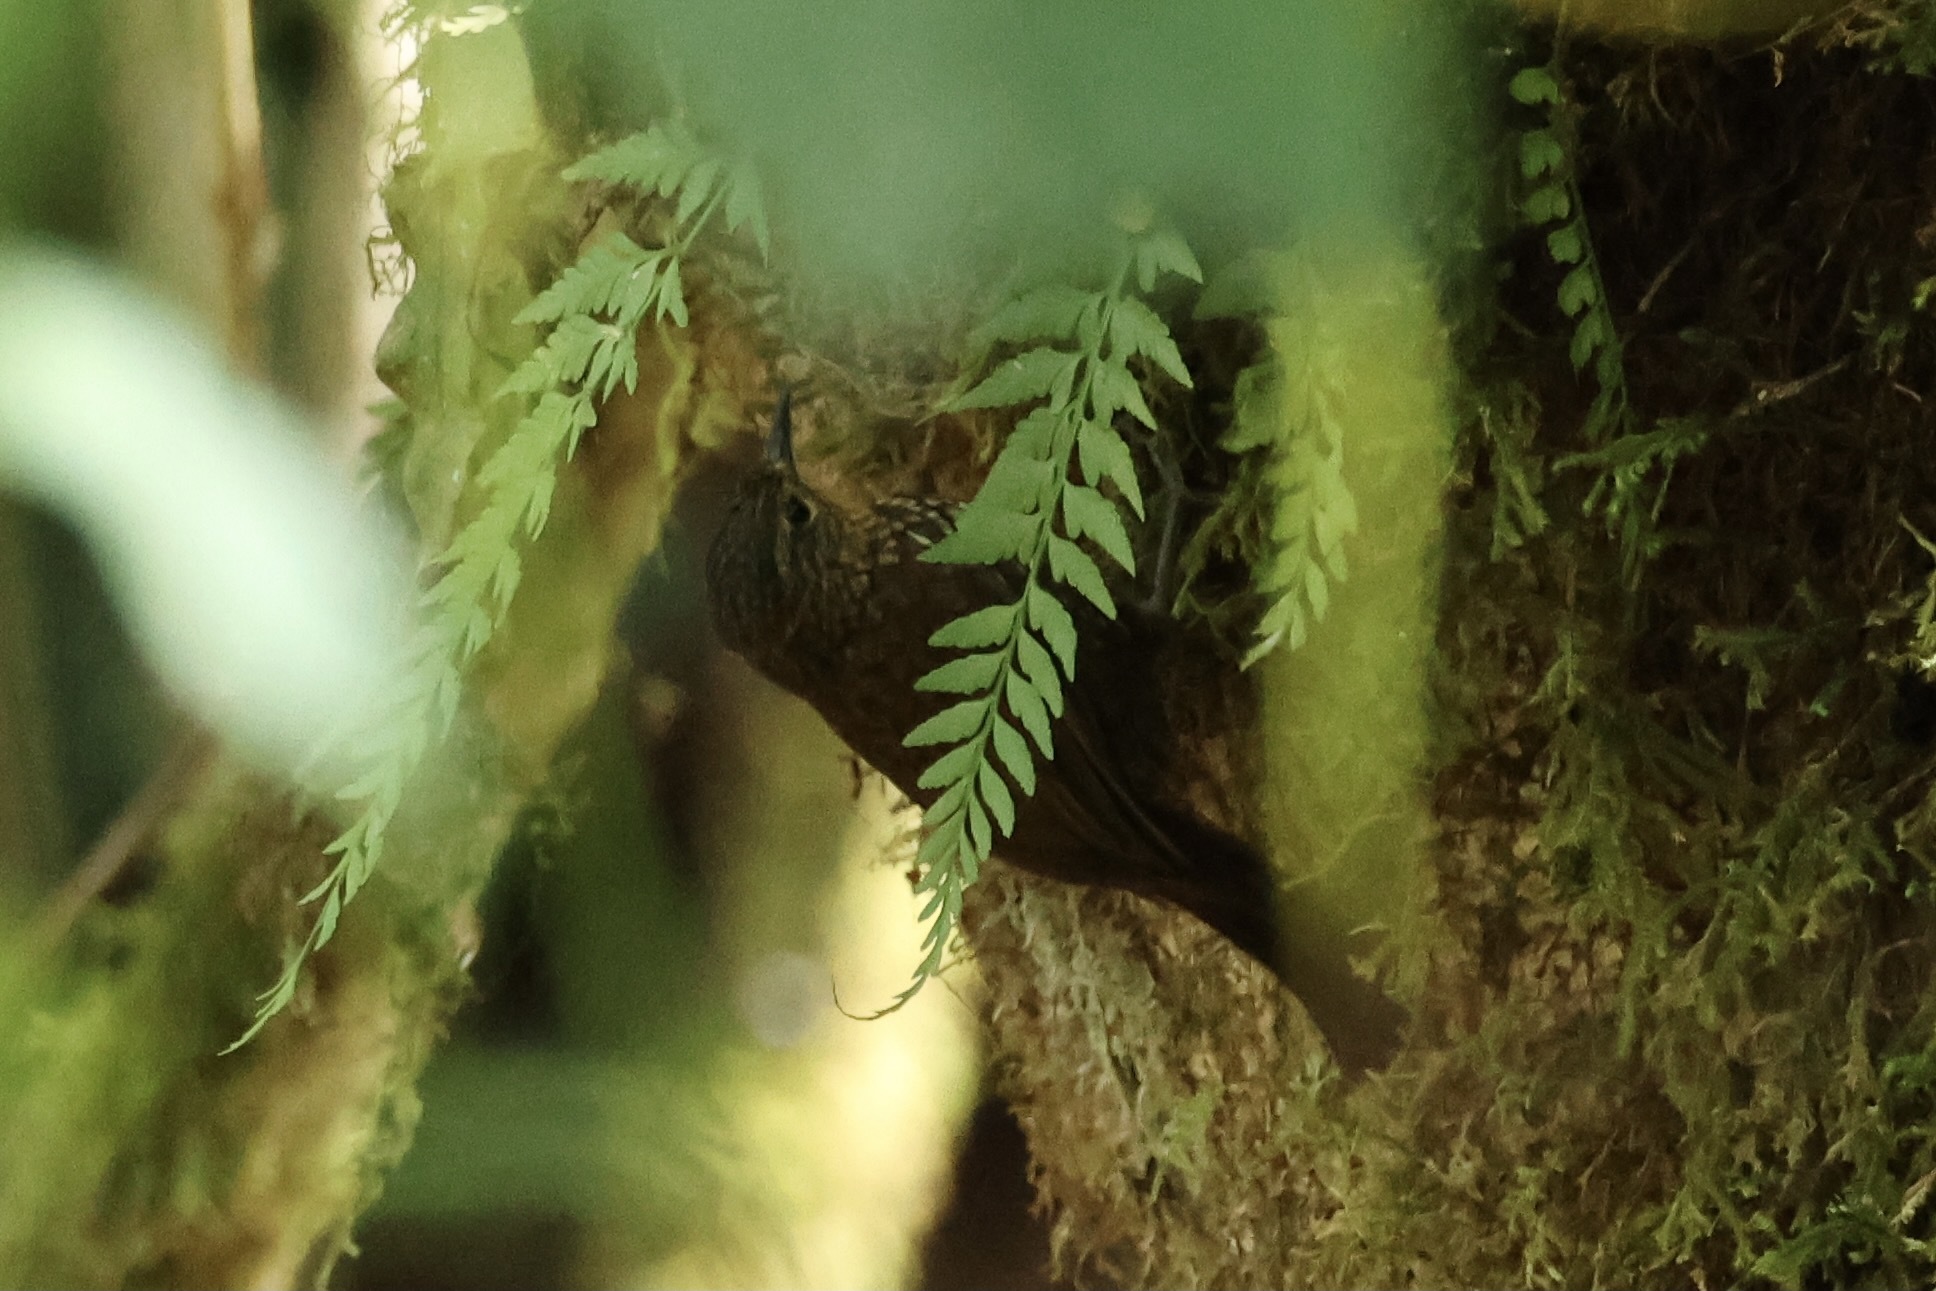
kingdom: Animalia
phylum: Chordata
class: Aves
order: Passeriformes
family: Furnariidae
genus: Premnoplex
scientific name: Premnoplex brunnescens
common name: Spotted barbtail
